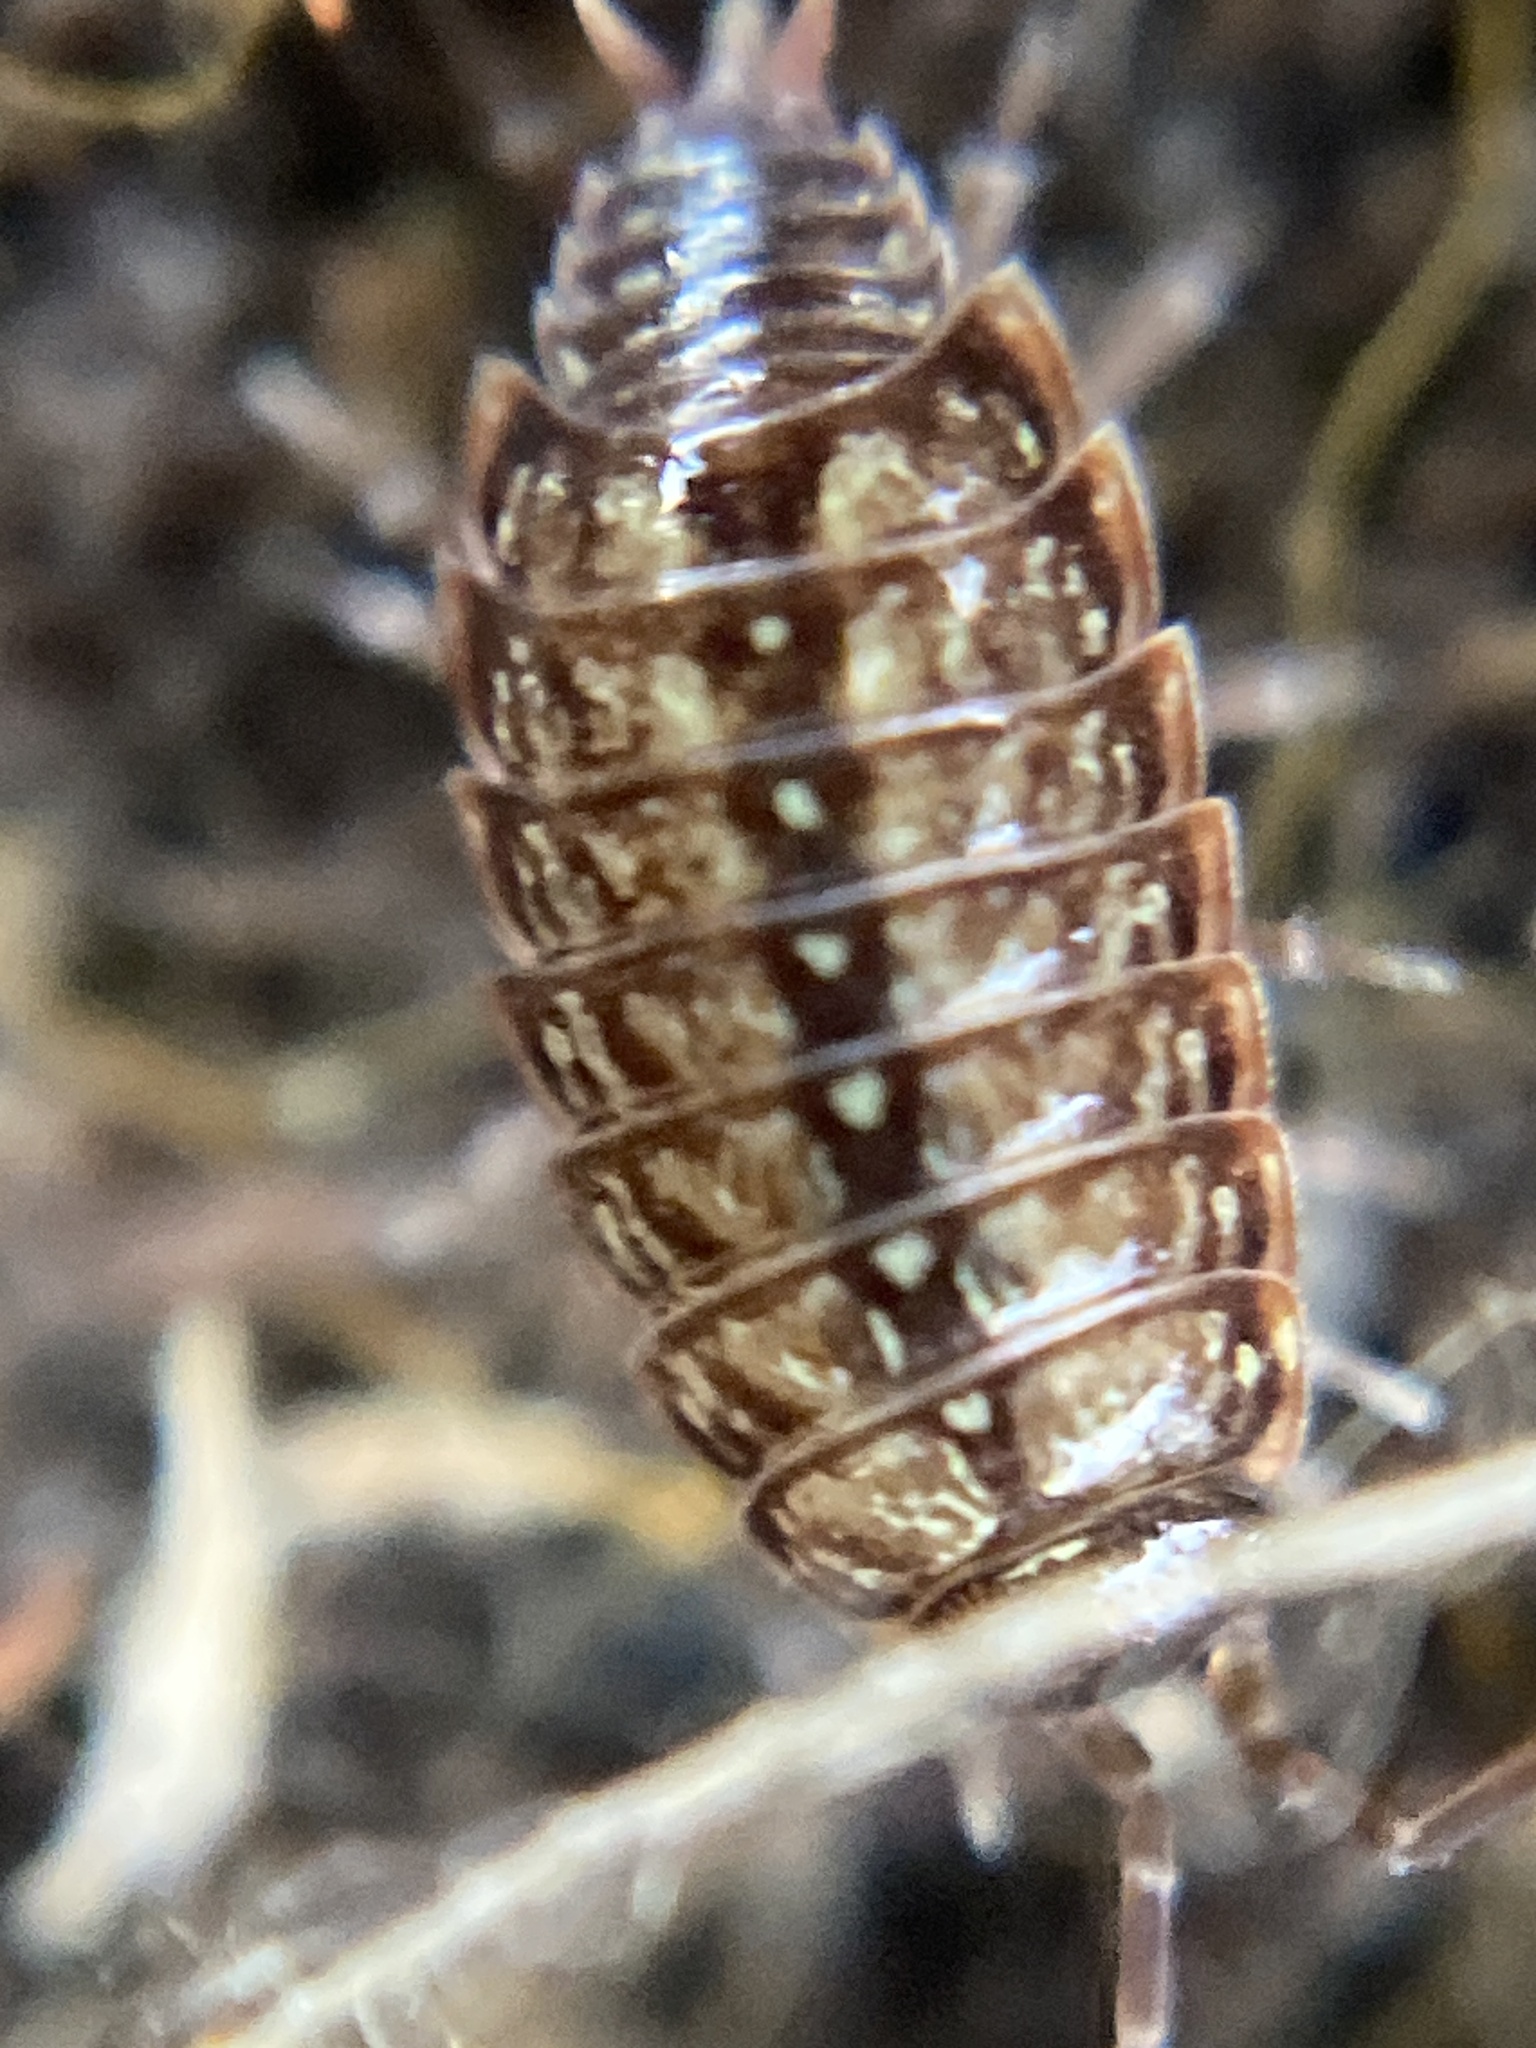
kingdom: Animalia
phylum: Arthropoda
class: Malacostraca
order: Isopoda
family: Philosciidae
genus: Philoscia
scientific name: Philoscia muscorum
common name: Common striped woodlouse
